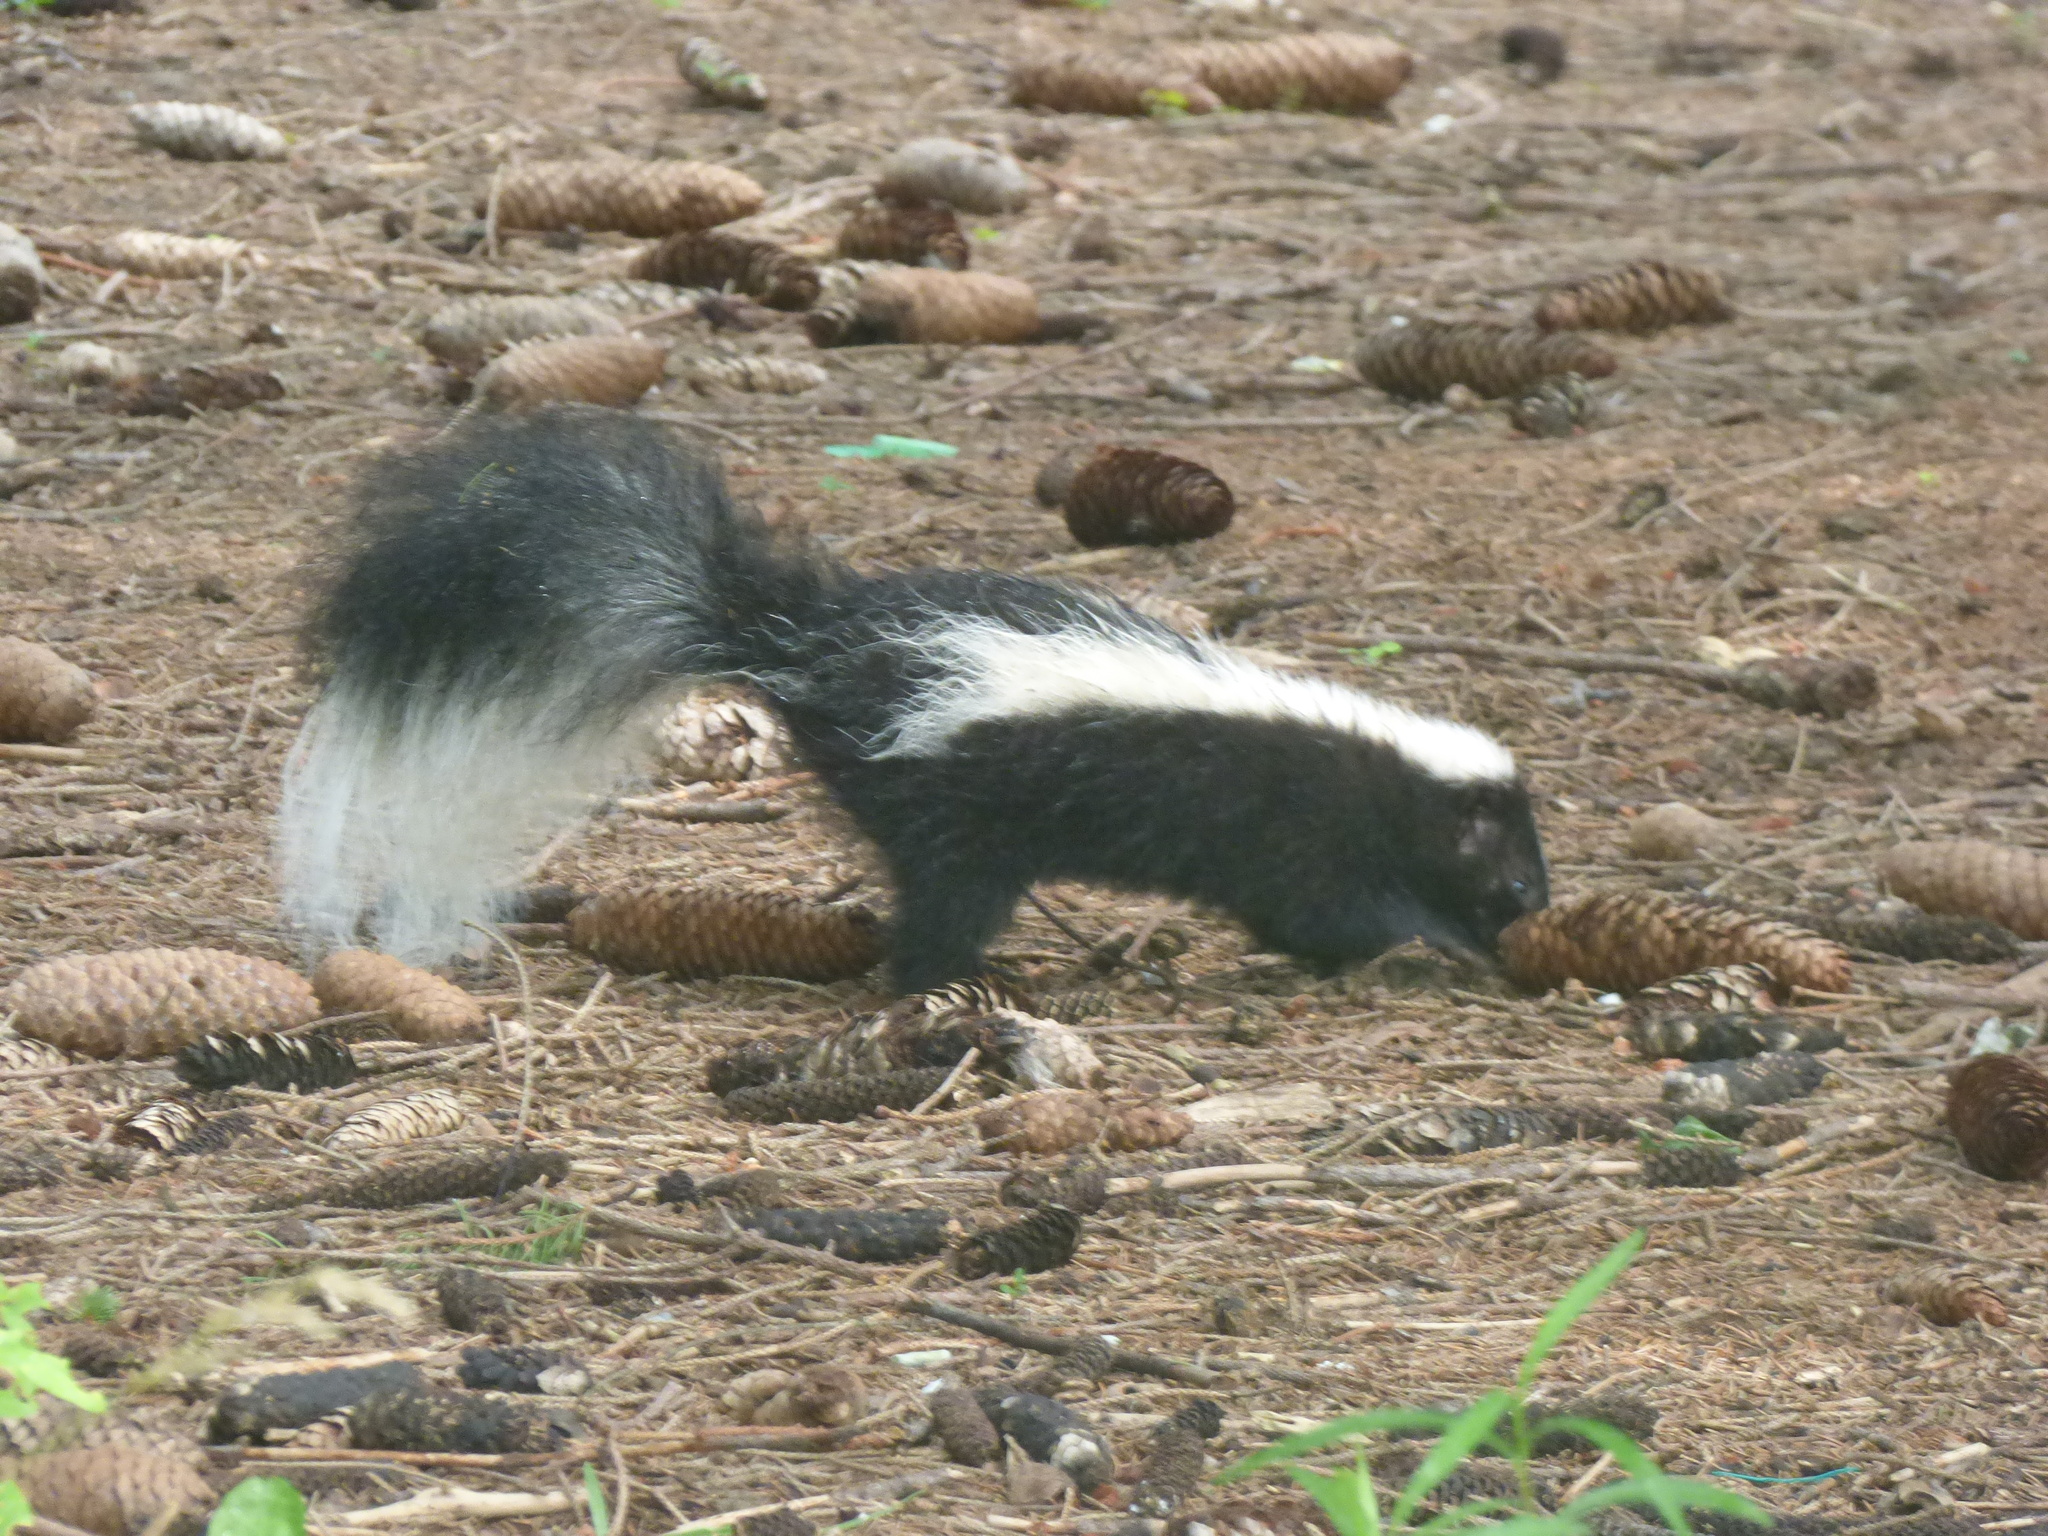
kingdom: Animalia
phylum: Chordata
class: Mammalia
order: Carnivora
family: Mephitidae
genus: Mephitis
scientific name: Mephitis mephitis
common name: Striped skunk
